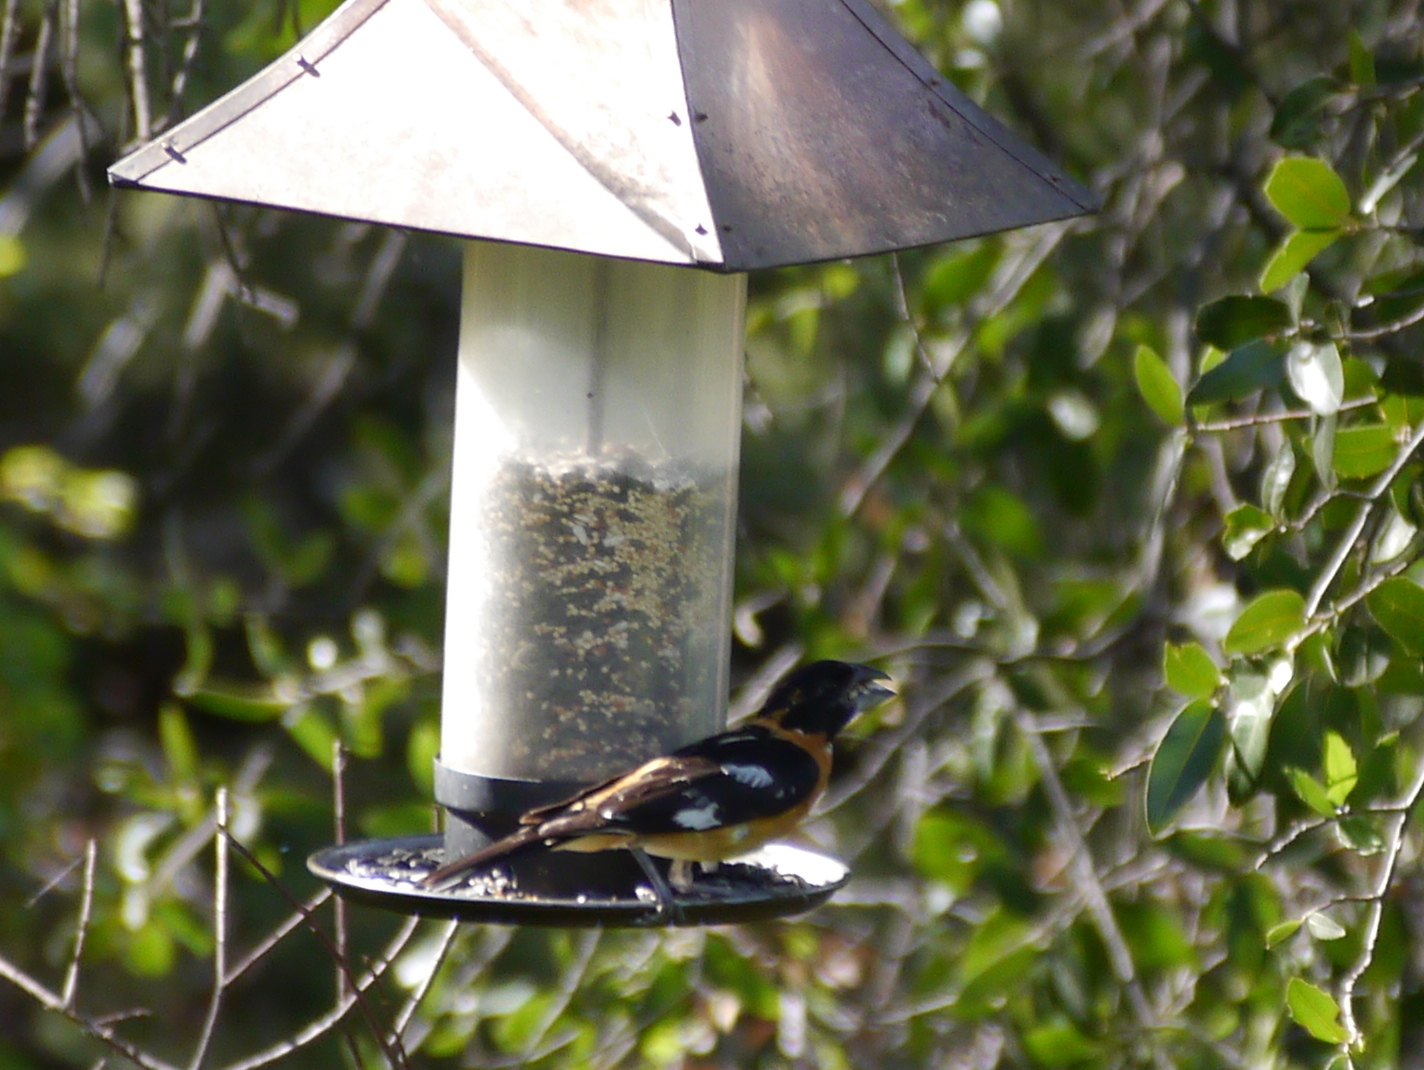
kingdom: Animalia
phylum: Chordata
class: Aves
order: Passeriformes
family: Cardinalidae
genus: Pheucticus
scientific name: Pheucticus melanocephalus
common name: Black-headed grosbeak
